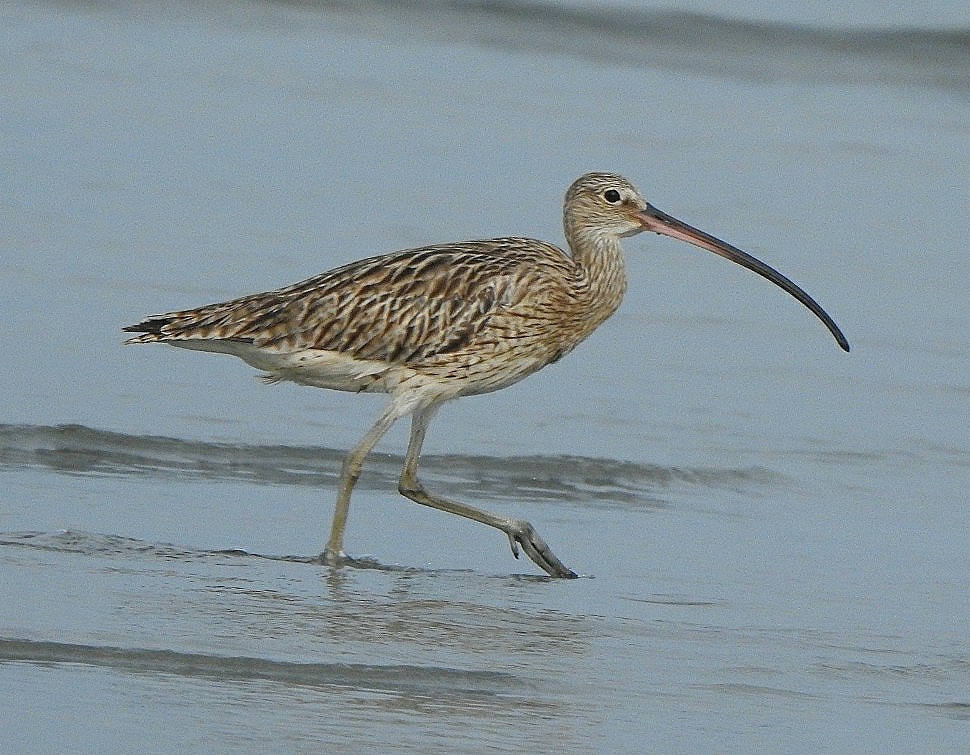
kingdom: Animalia
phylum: Chordata
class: Aves
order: Charadriiformes
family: Scolopacidae
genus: Numenius
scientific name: Numenius arquata
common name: Eurasian curlew
